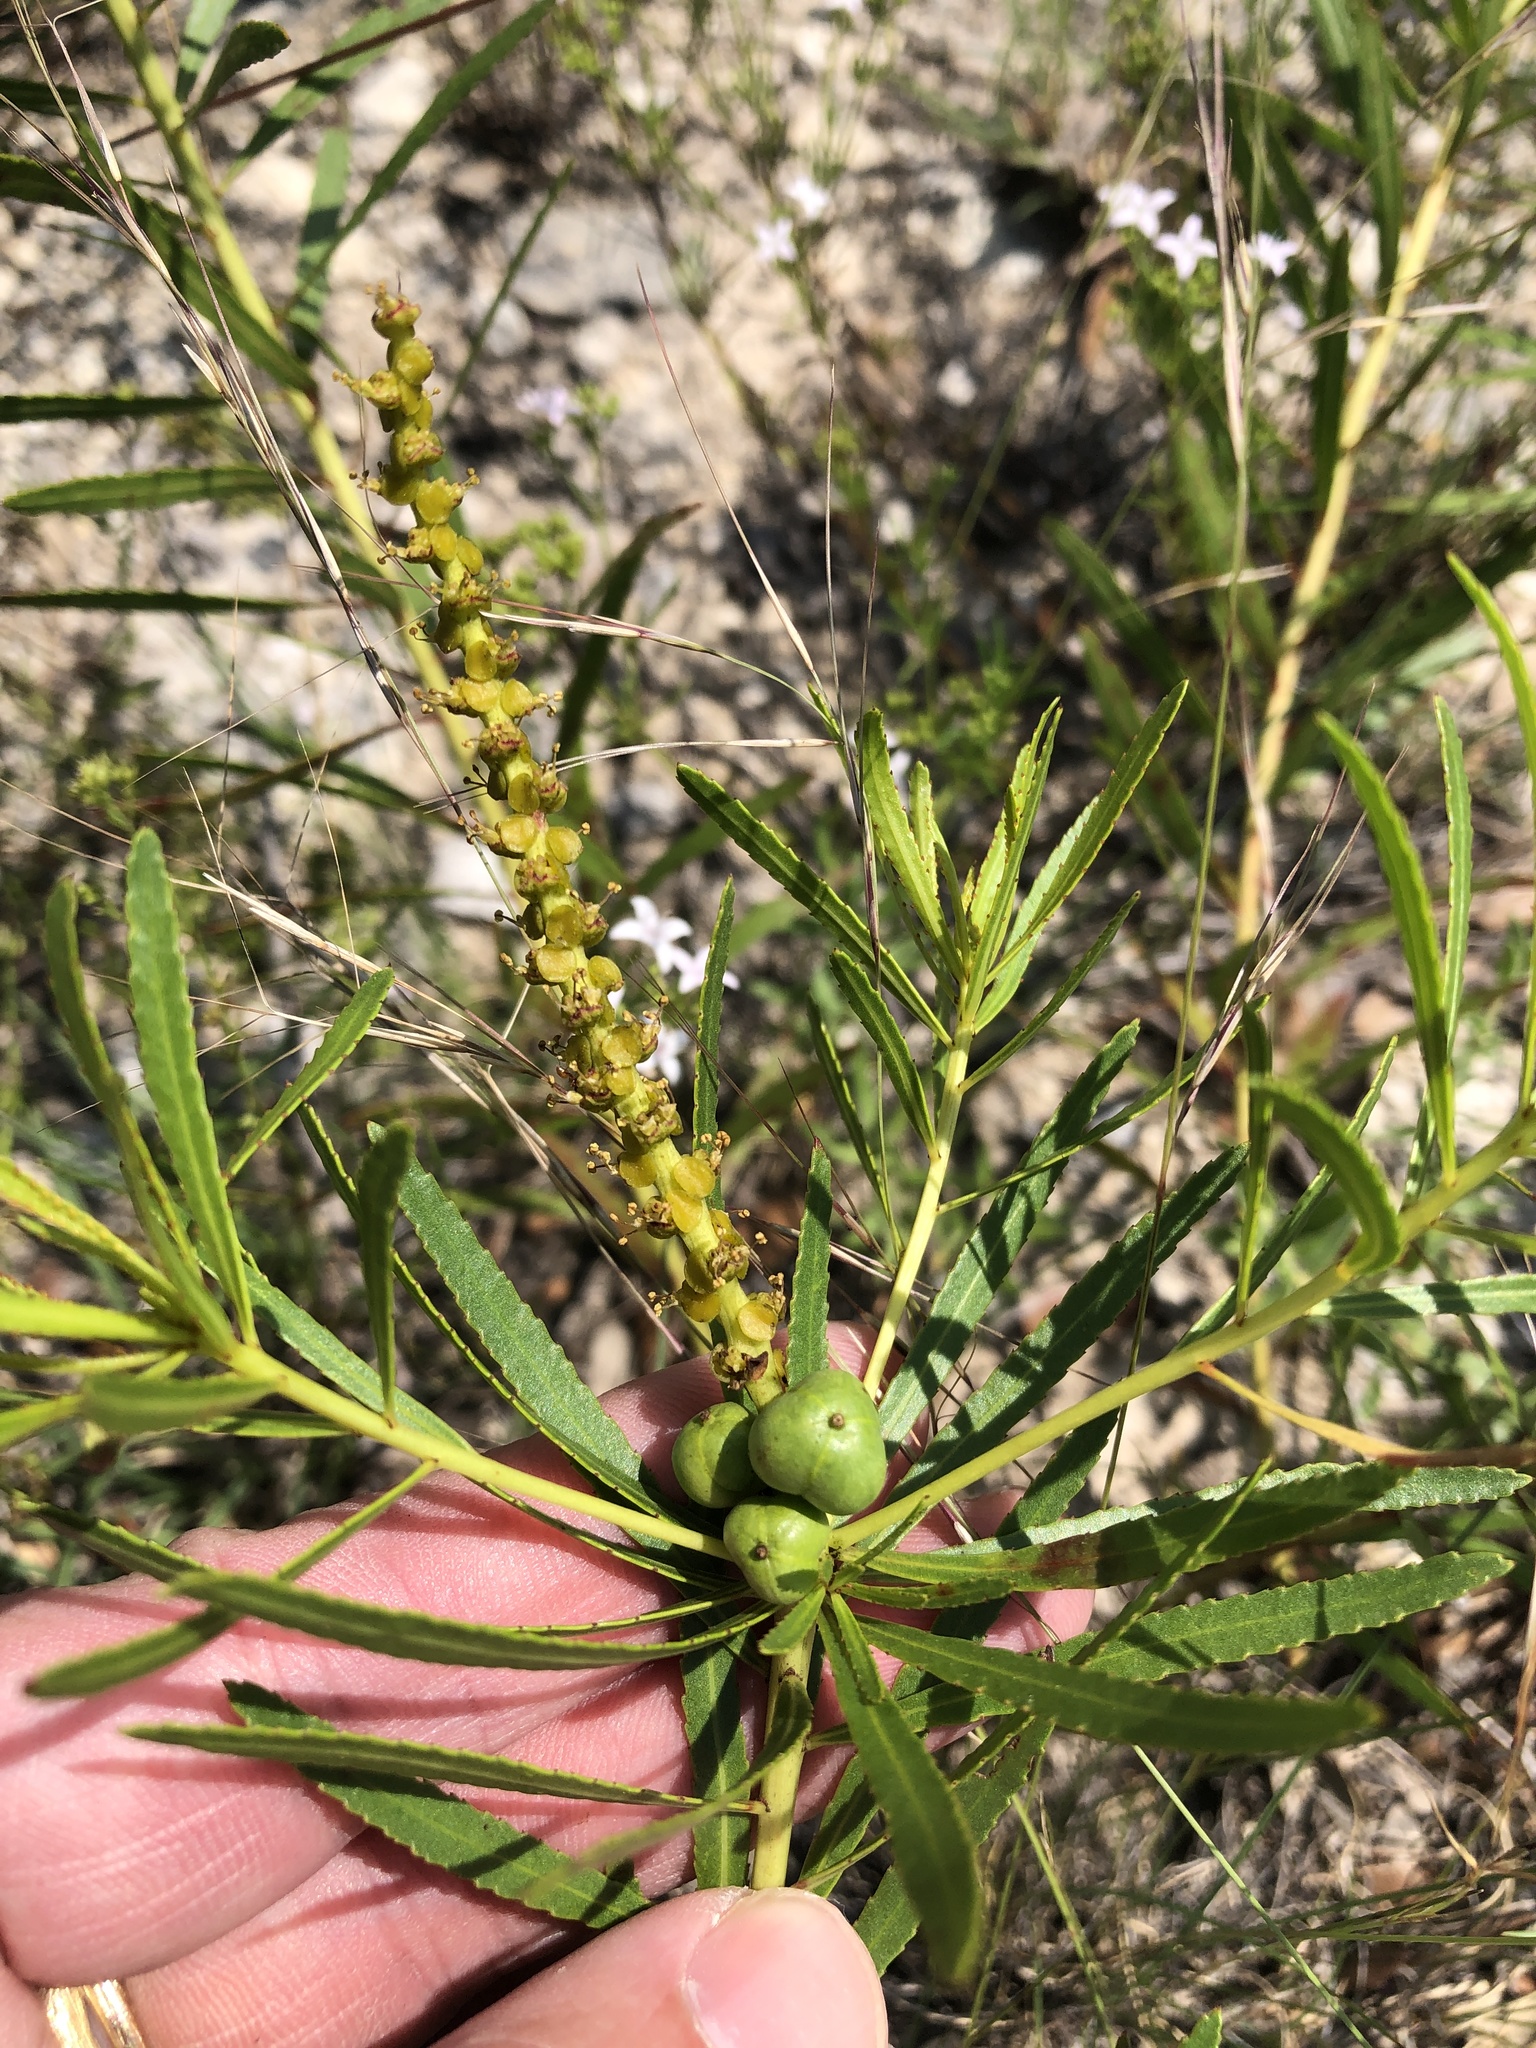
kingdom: Plantae
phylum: Tracheophyta
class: Magnoliopsida
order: Malpighiales
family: Euphorbiaceae
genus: Stillingia
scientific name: Stillingia texana
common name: Texas stillingia
